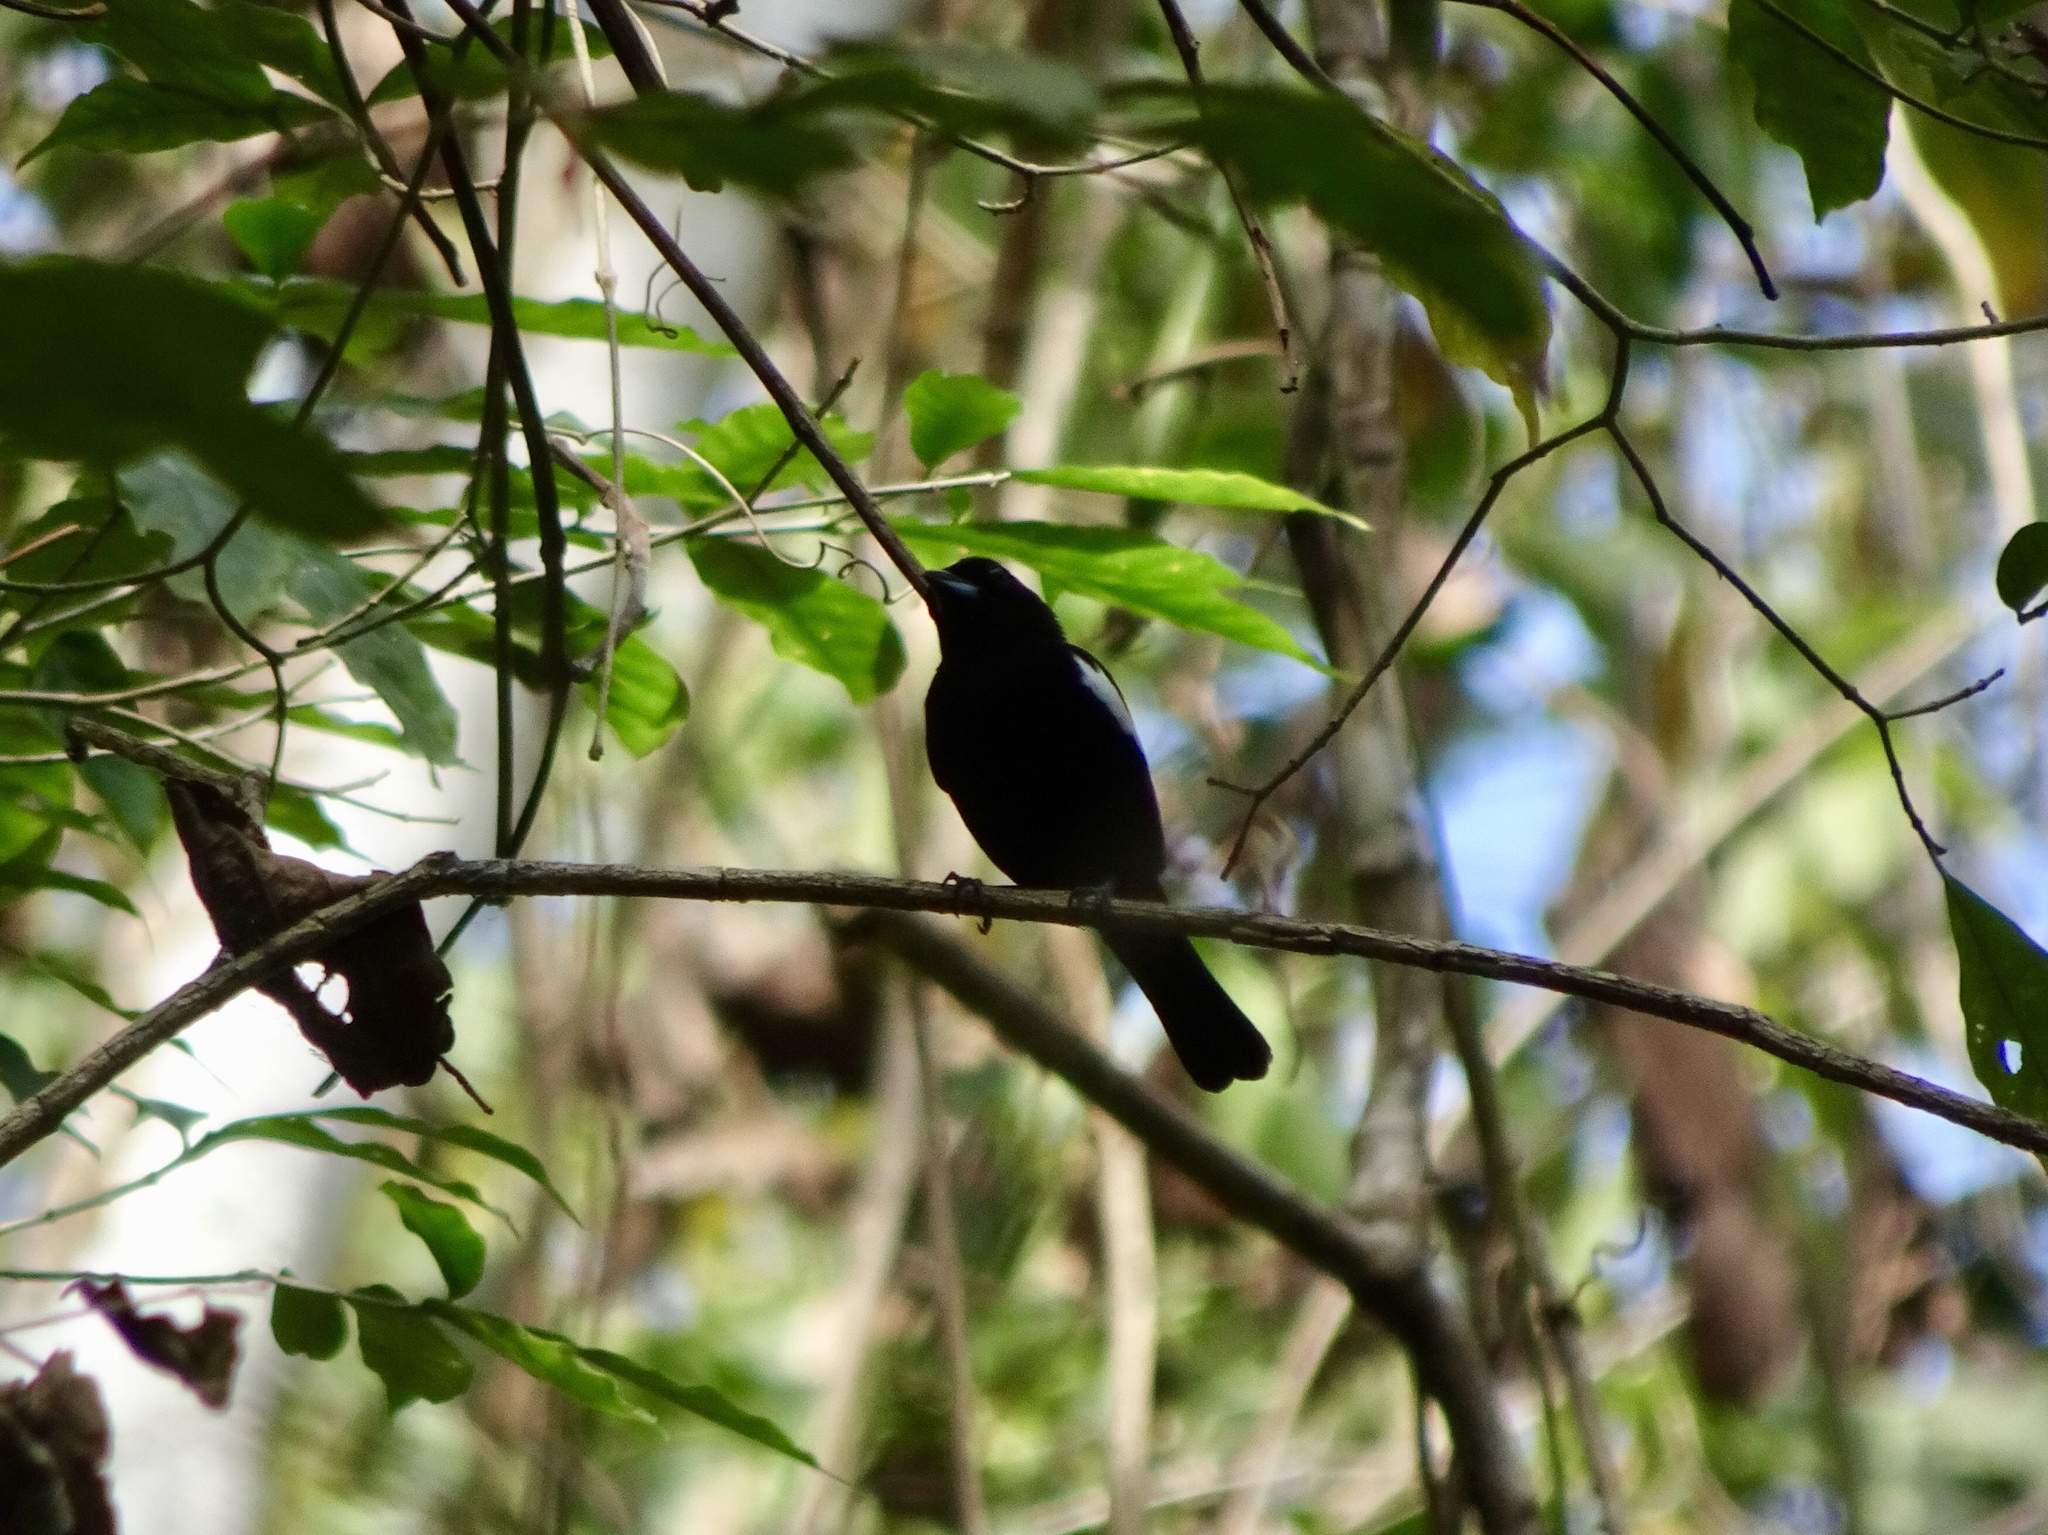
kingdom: Animalia
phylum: Chordata
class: Aves
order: Passeriformes
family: Thraupidae
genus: Loriotus
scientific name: Loriotus luctuosus
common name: White-shouldered tanager
